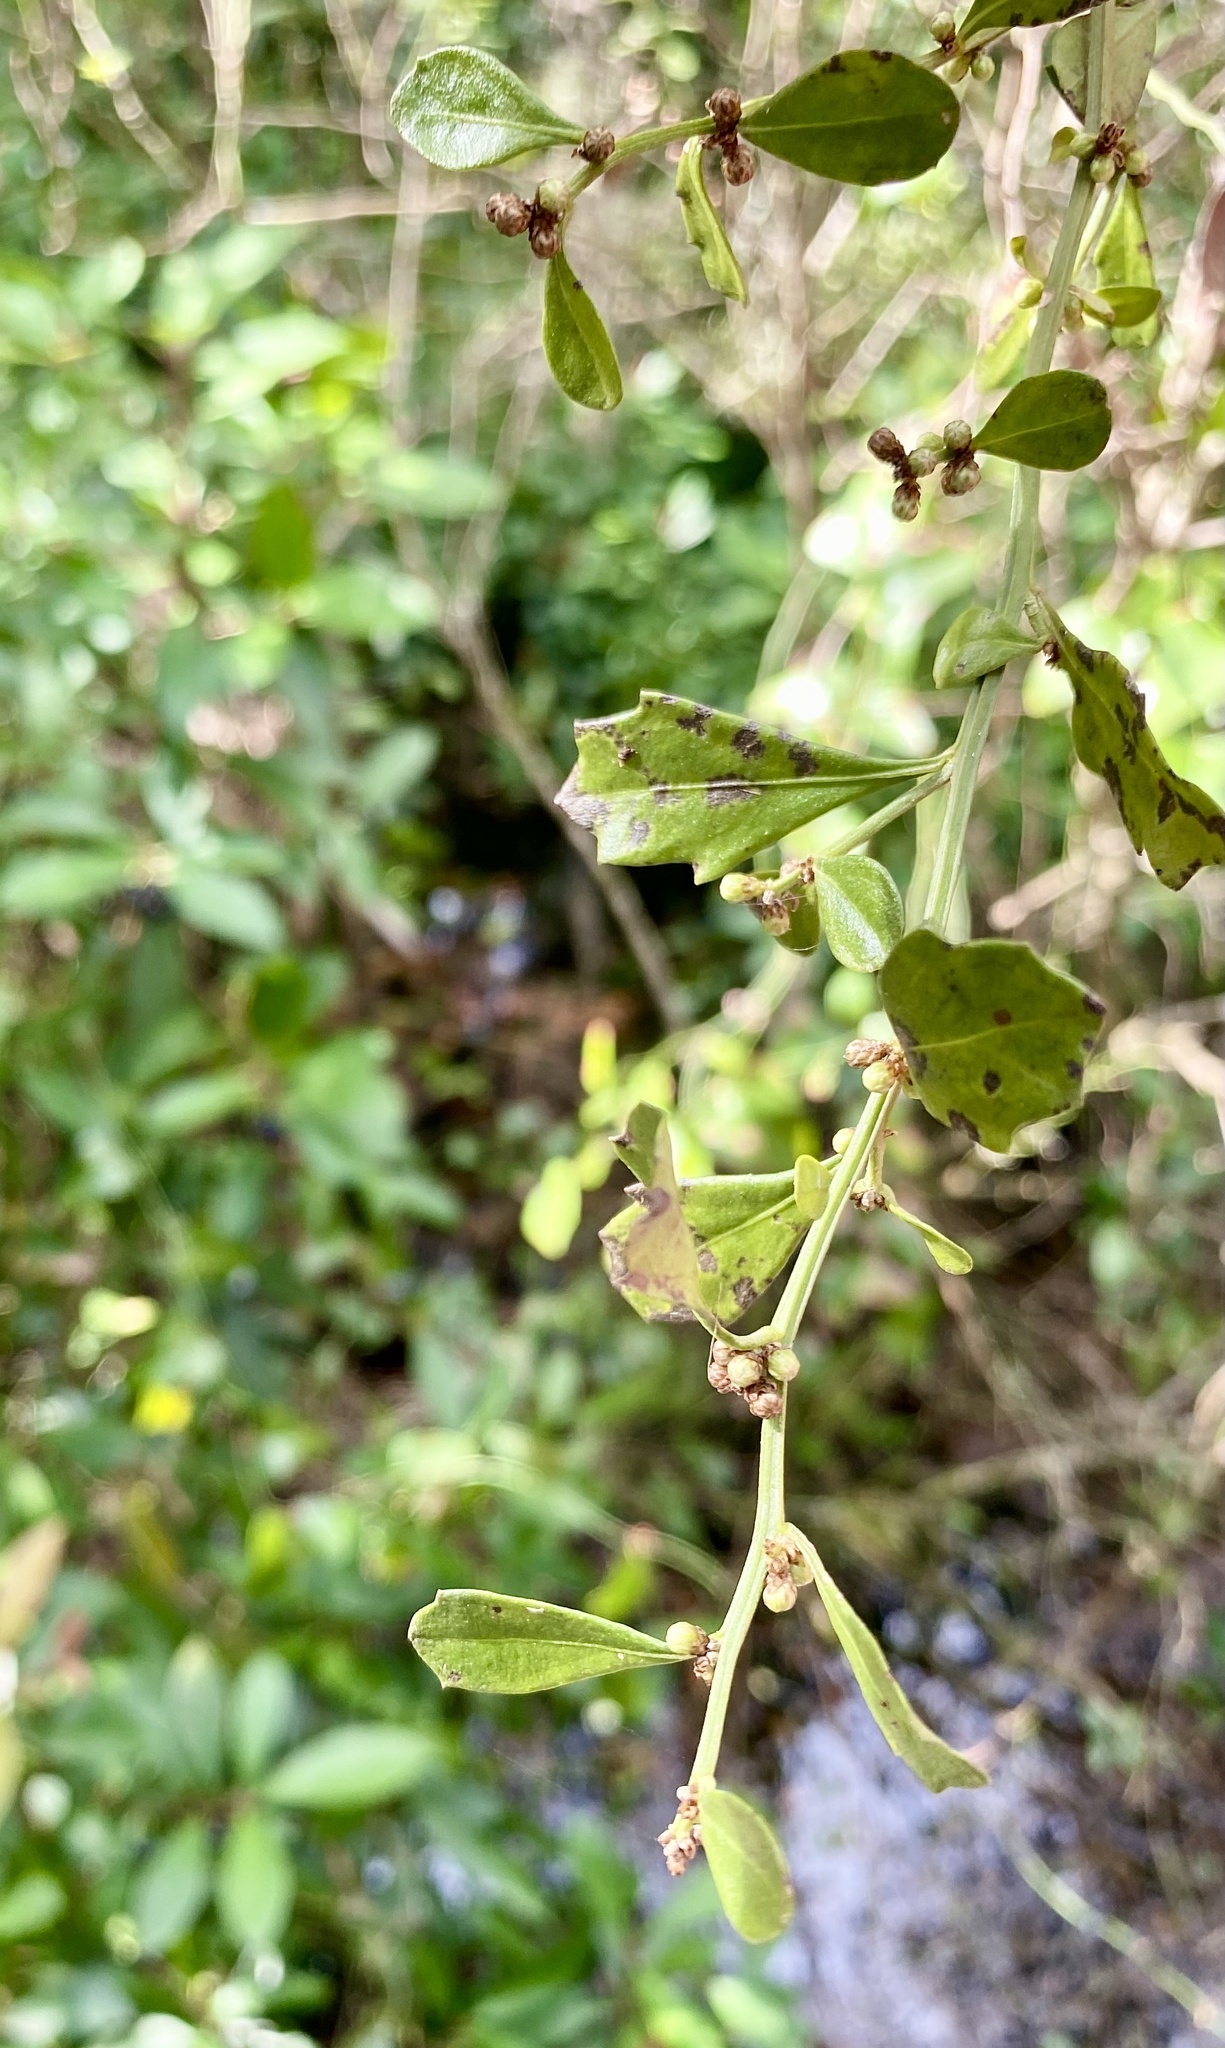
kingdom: Plantae
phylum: Tracheophyta
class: Magnoliopsida
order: Asterales
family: Asteraceae
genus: Baccharis
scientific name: Baccharis glomeruliflora
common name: Silverling groundsel bush
